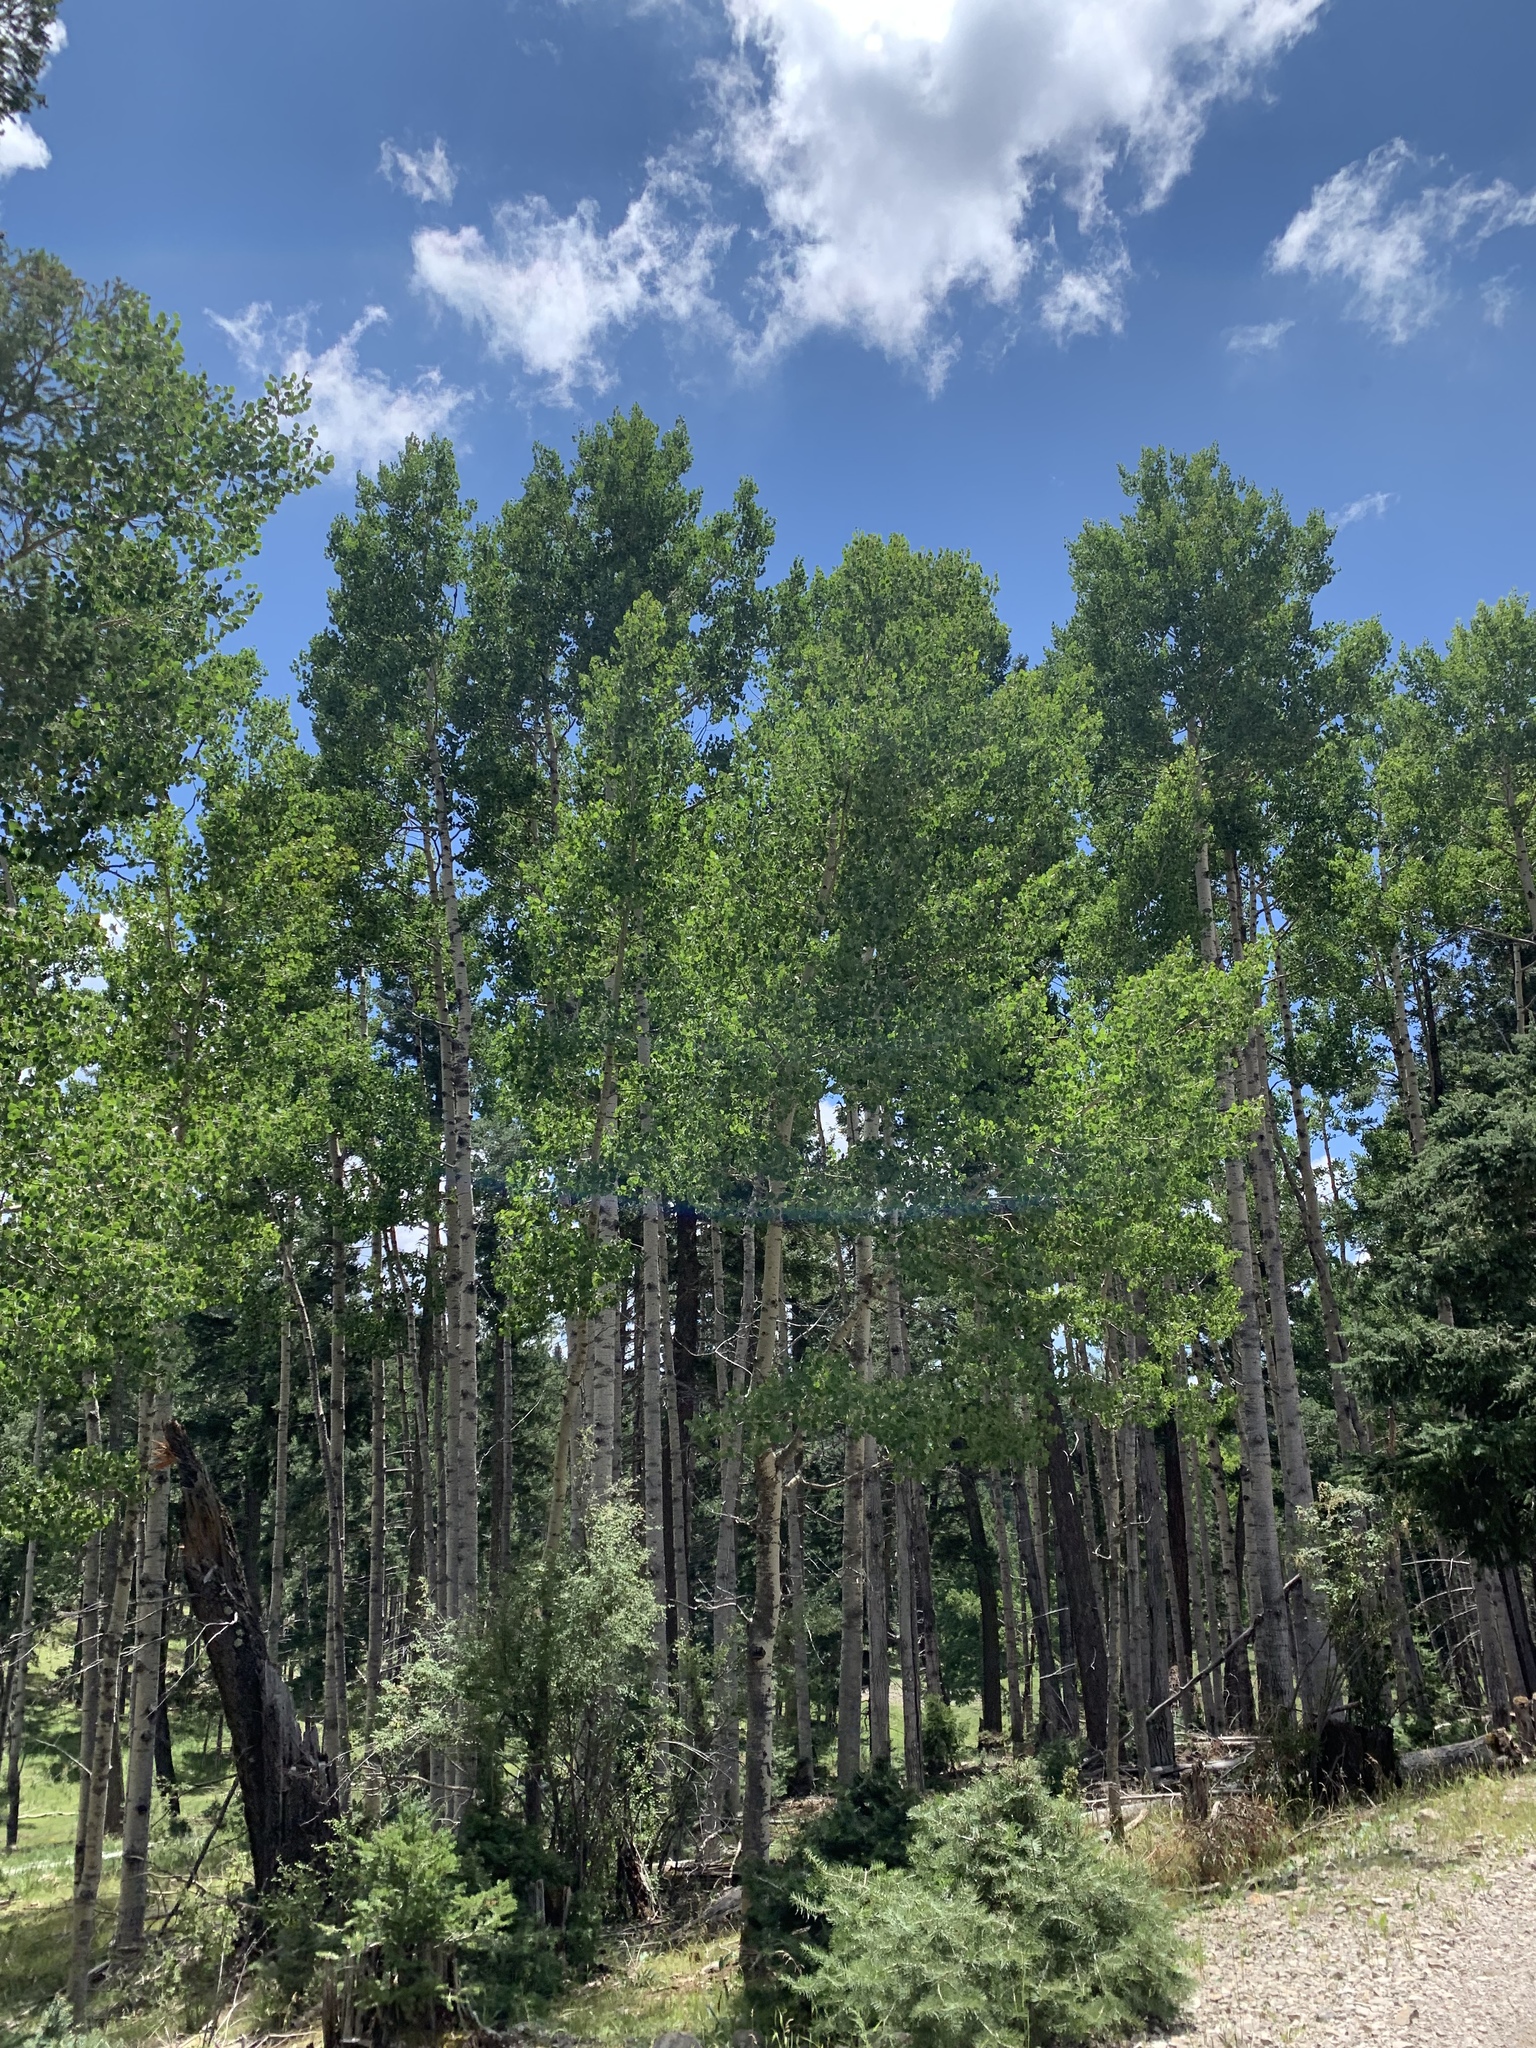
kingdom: Plantae
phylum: Tracheophyta
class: Magnoliopsida
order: Malpighiales
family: Salicaceae
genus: Populus
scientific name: Populus tremuloides
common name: Quaking aspen
